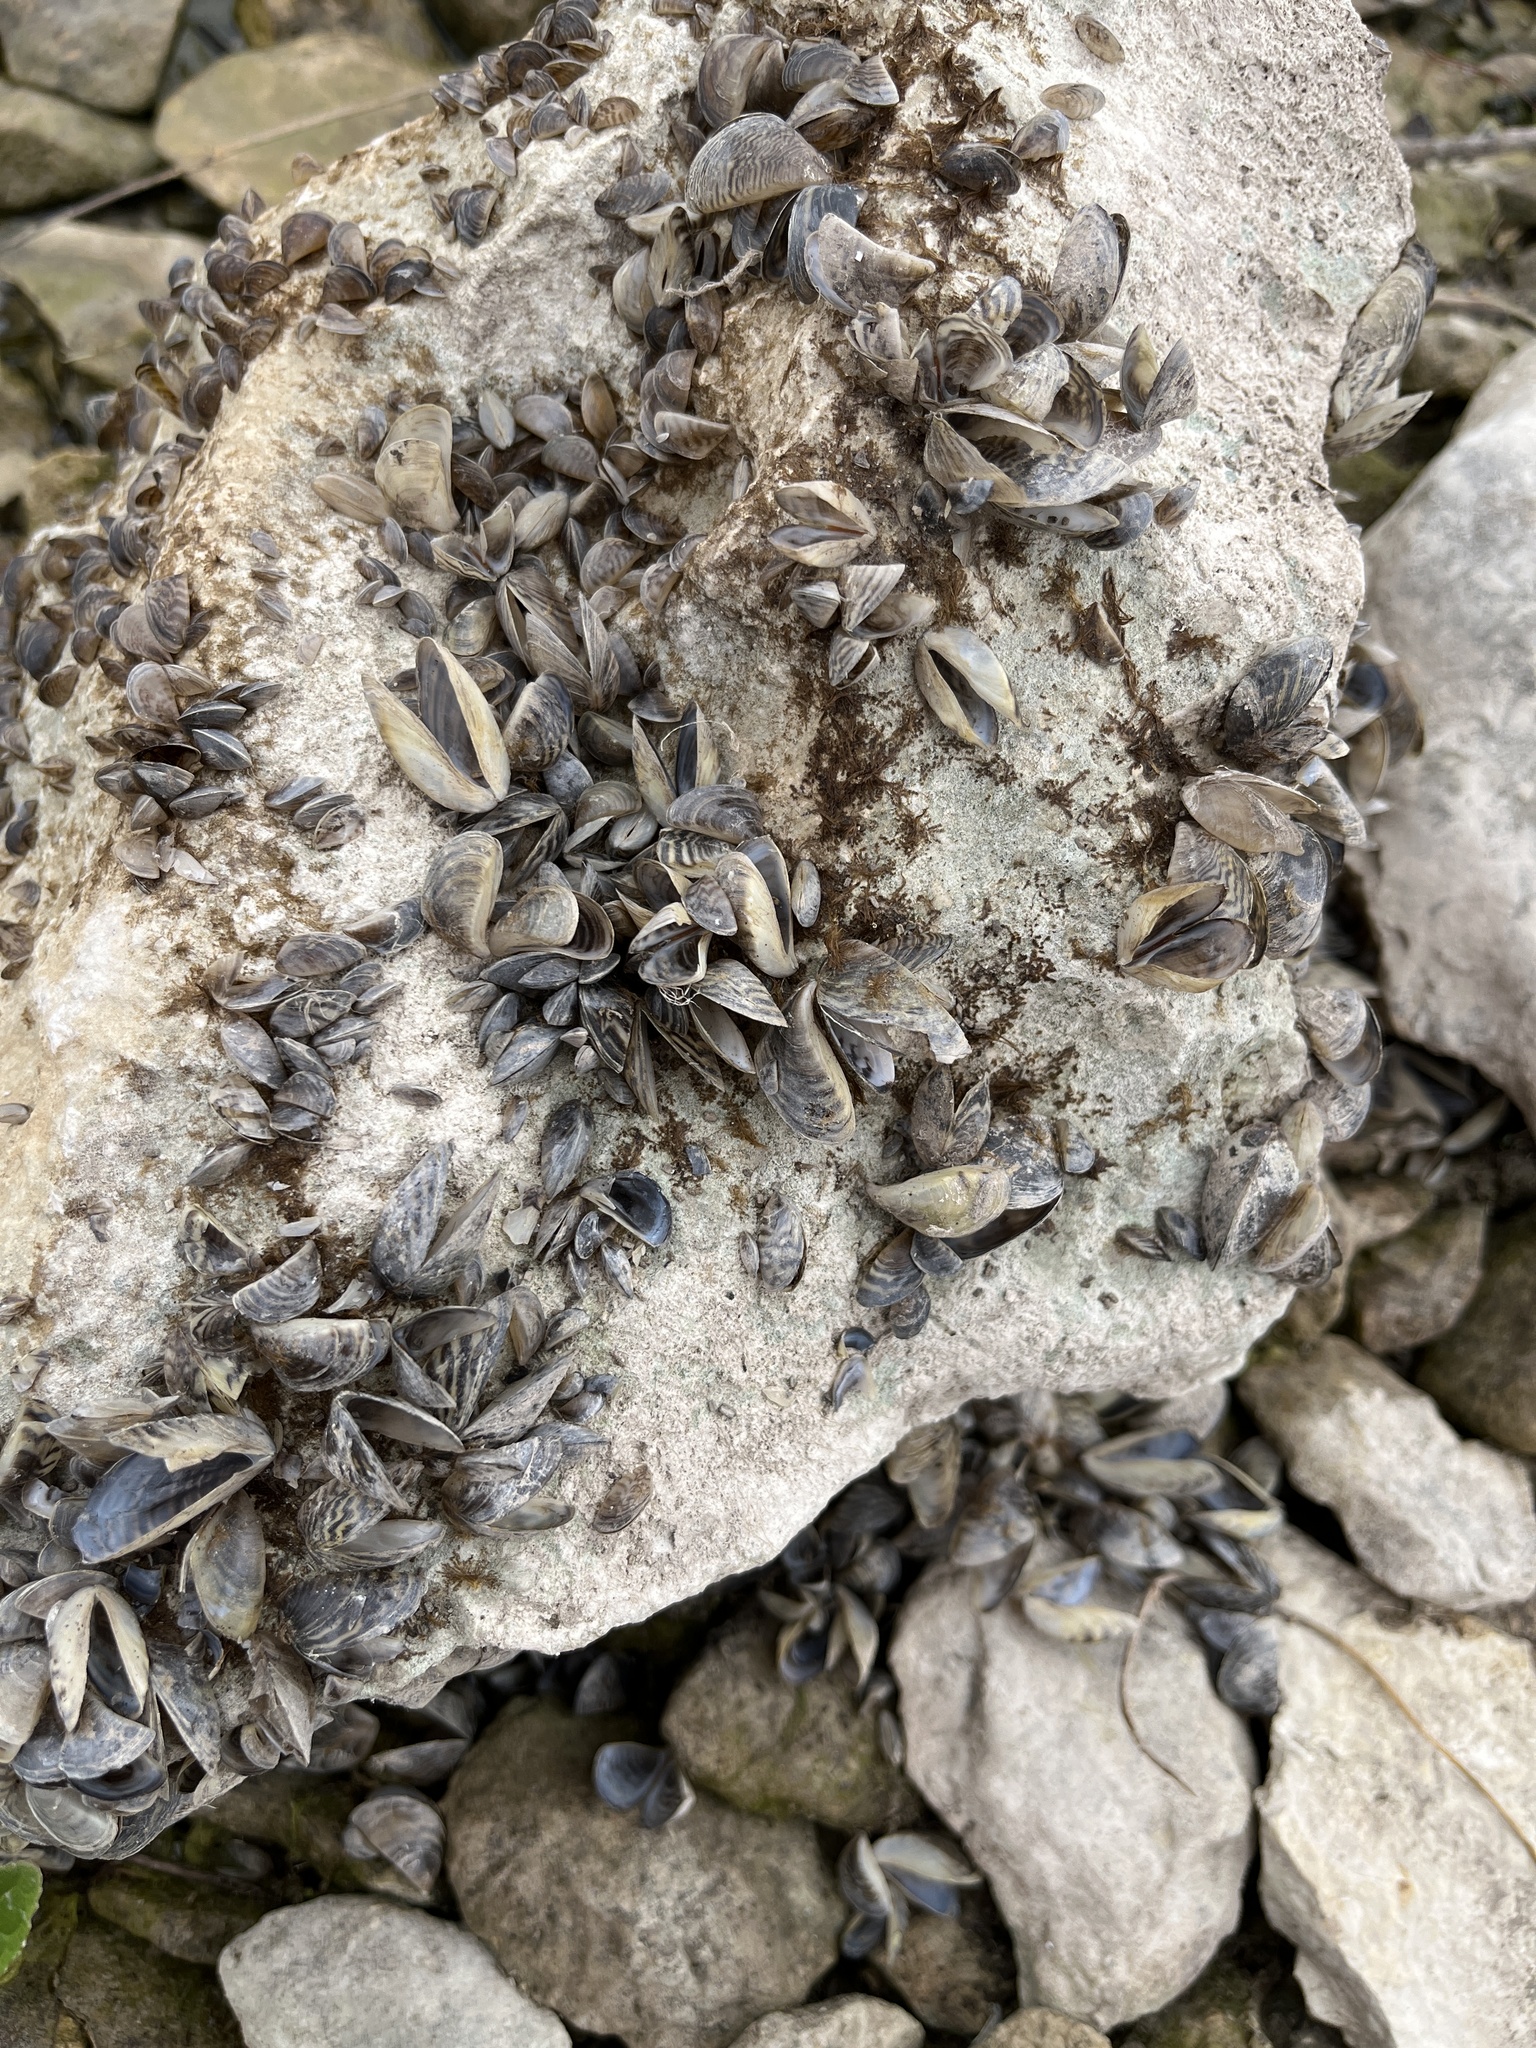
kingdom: Animalia
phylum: Mollusca
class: Bivalvia
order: Myida
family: Dreissenidae
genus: Dreissena
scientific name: Dreissena polymorpha
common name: Zebra mussel
